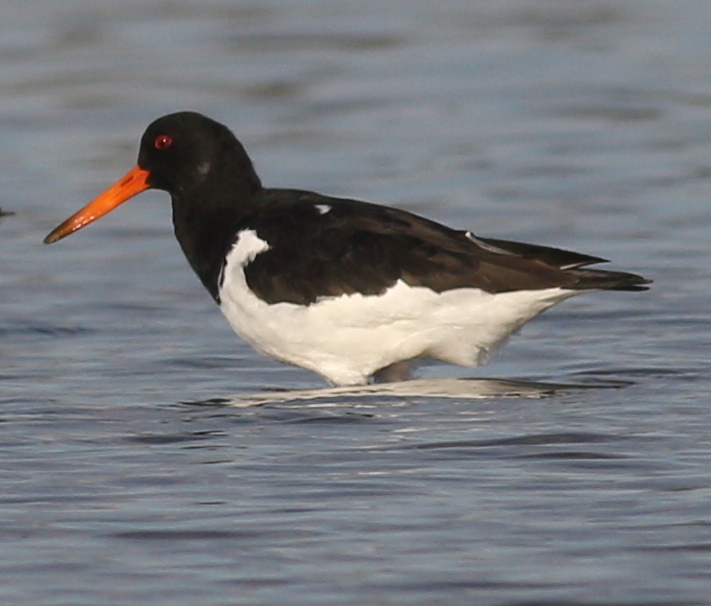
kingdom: Animalia
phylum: Chordata
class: Aves
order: Charadriiformes
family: Haematopodidae
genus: Haematopus
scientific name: Haematopus ostralegus
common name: Eurasian oystercatcher
